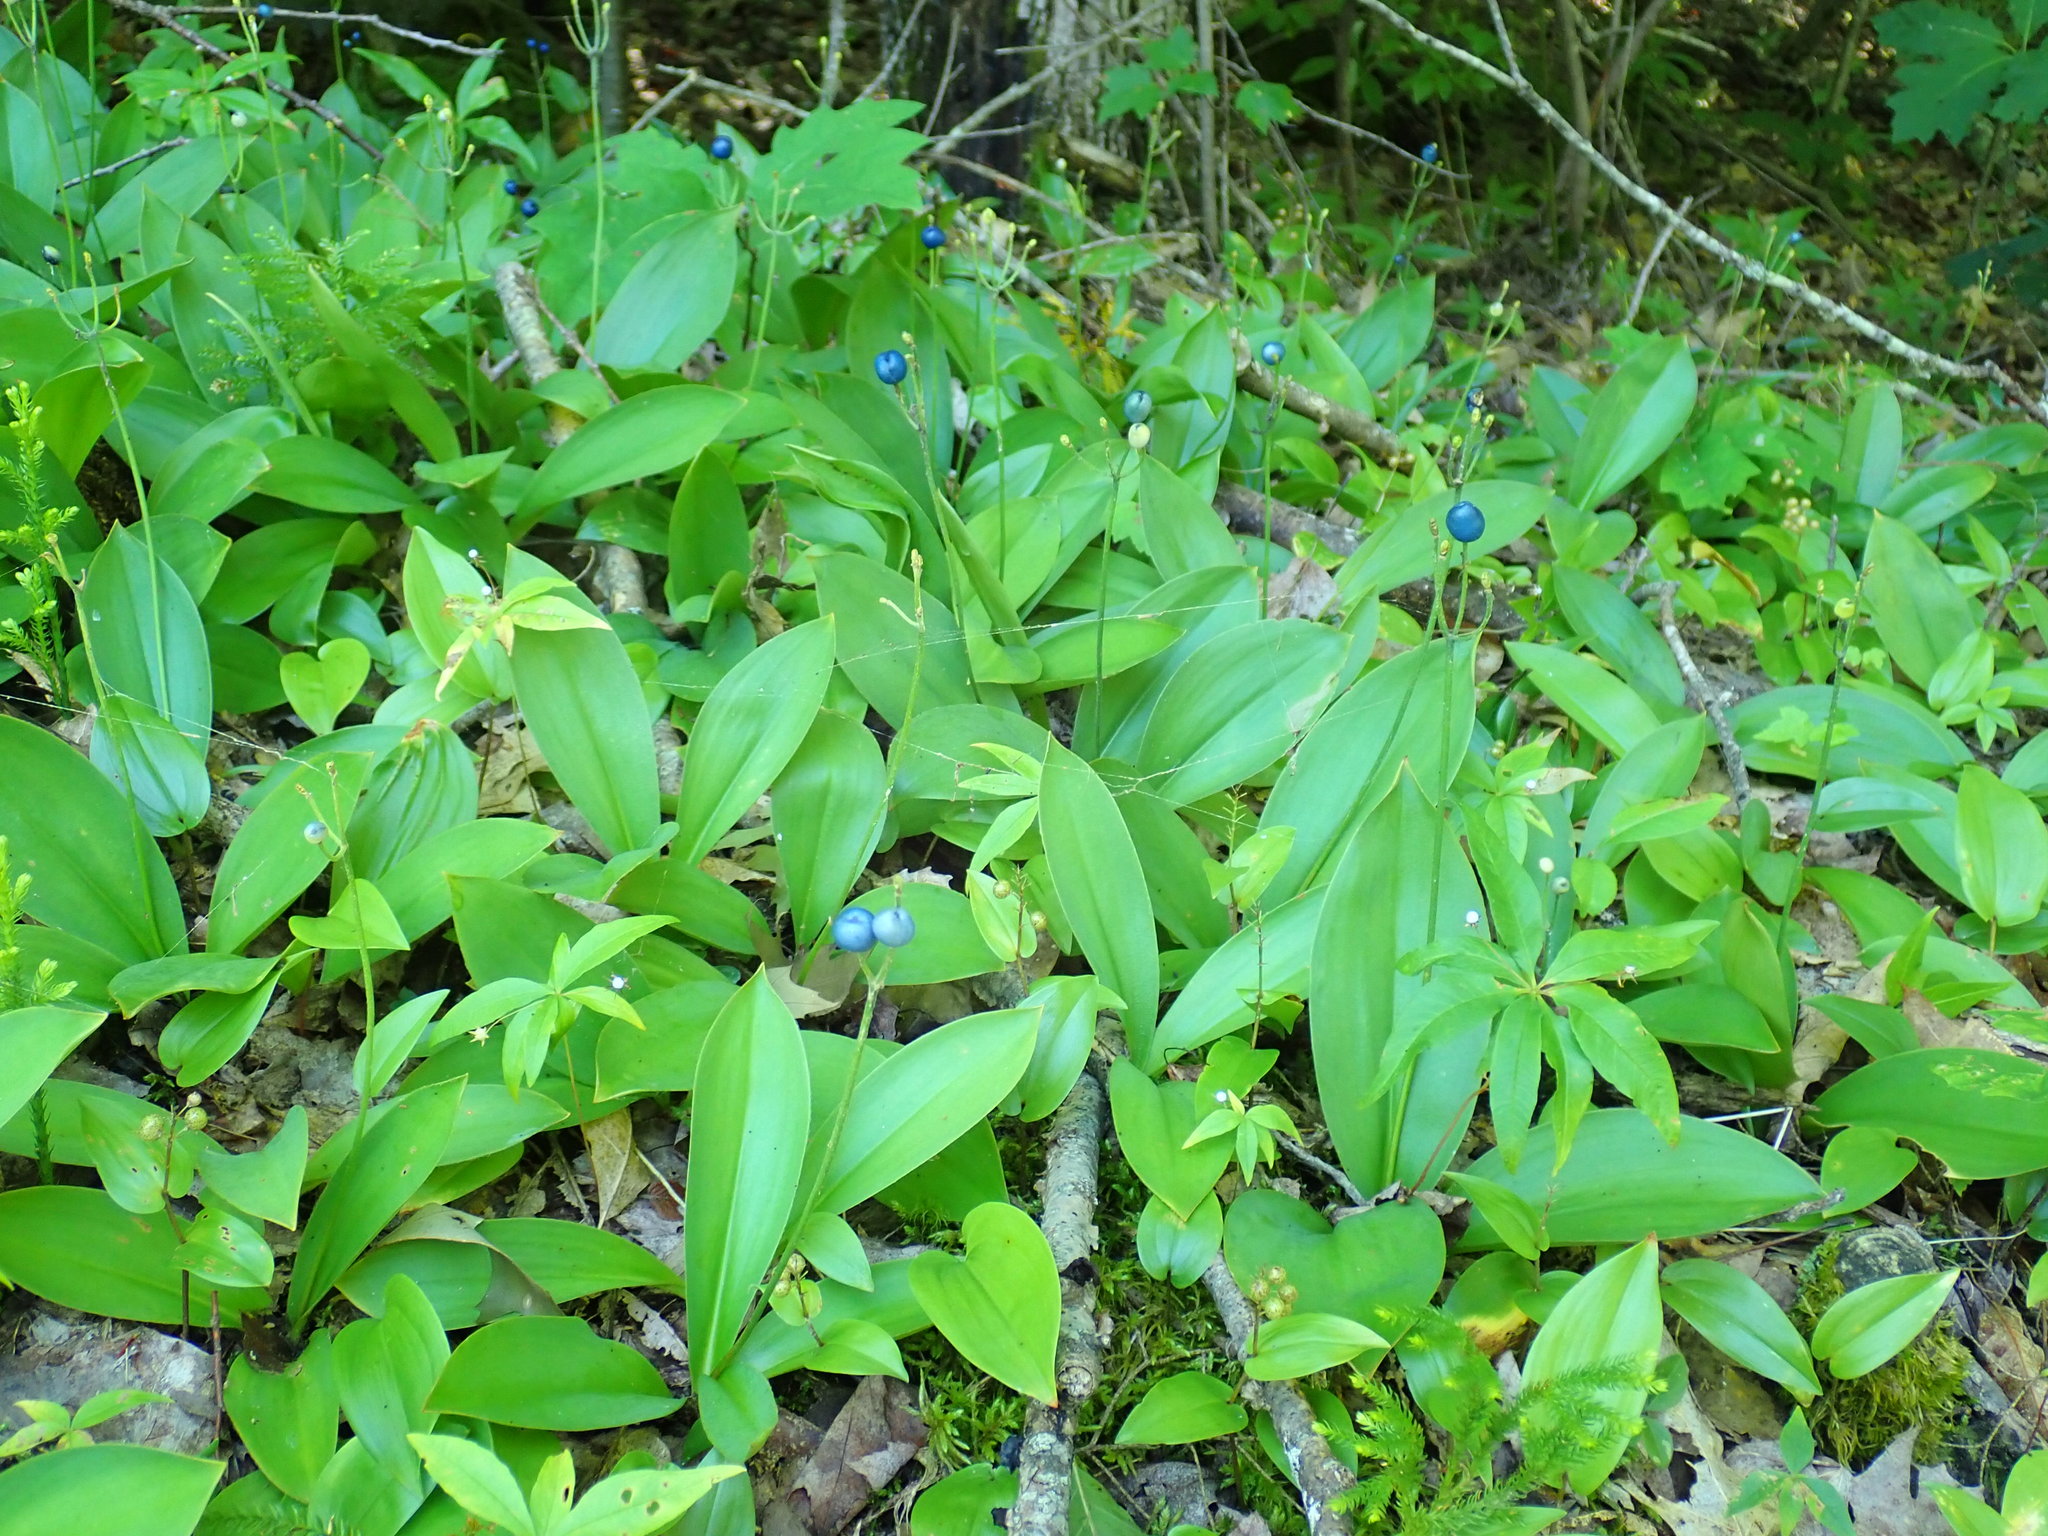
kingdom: Plantae
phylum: Tracheophyta
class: Liliopsida
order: Liliales
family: Liliaceae
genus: Clintonia
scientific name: Clintonia borealis
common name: Yellow clintonia
